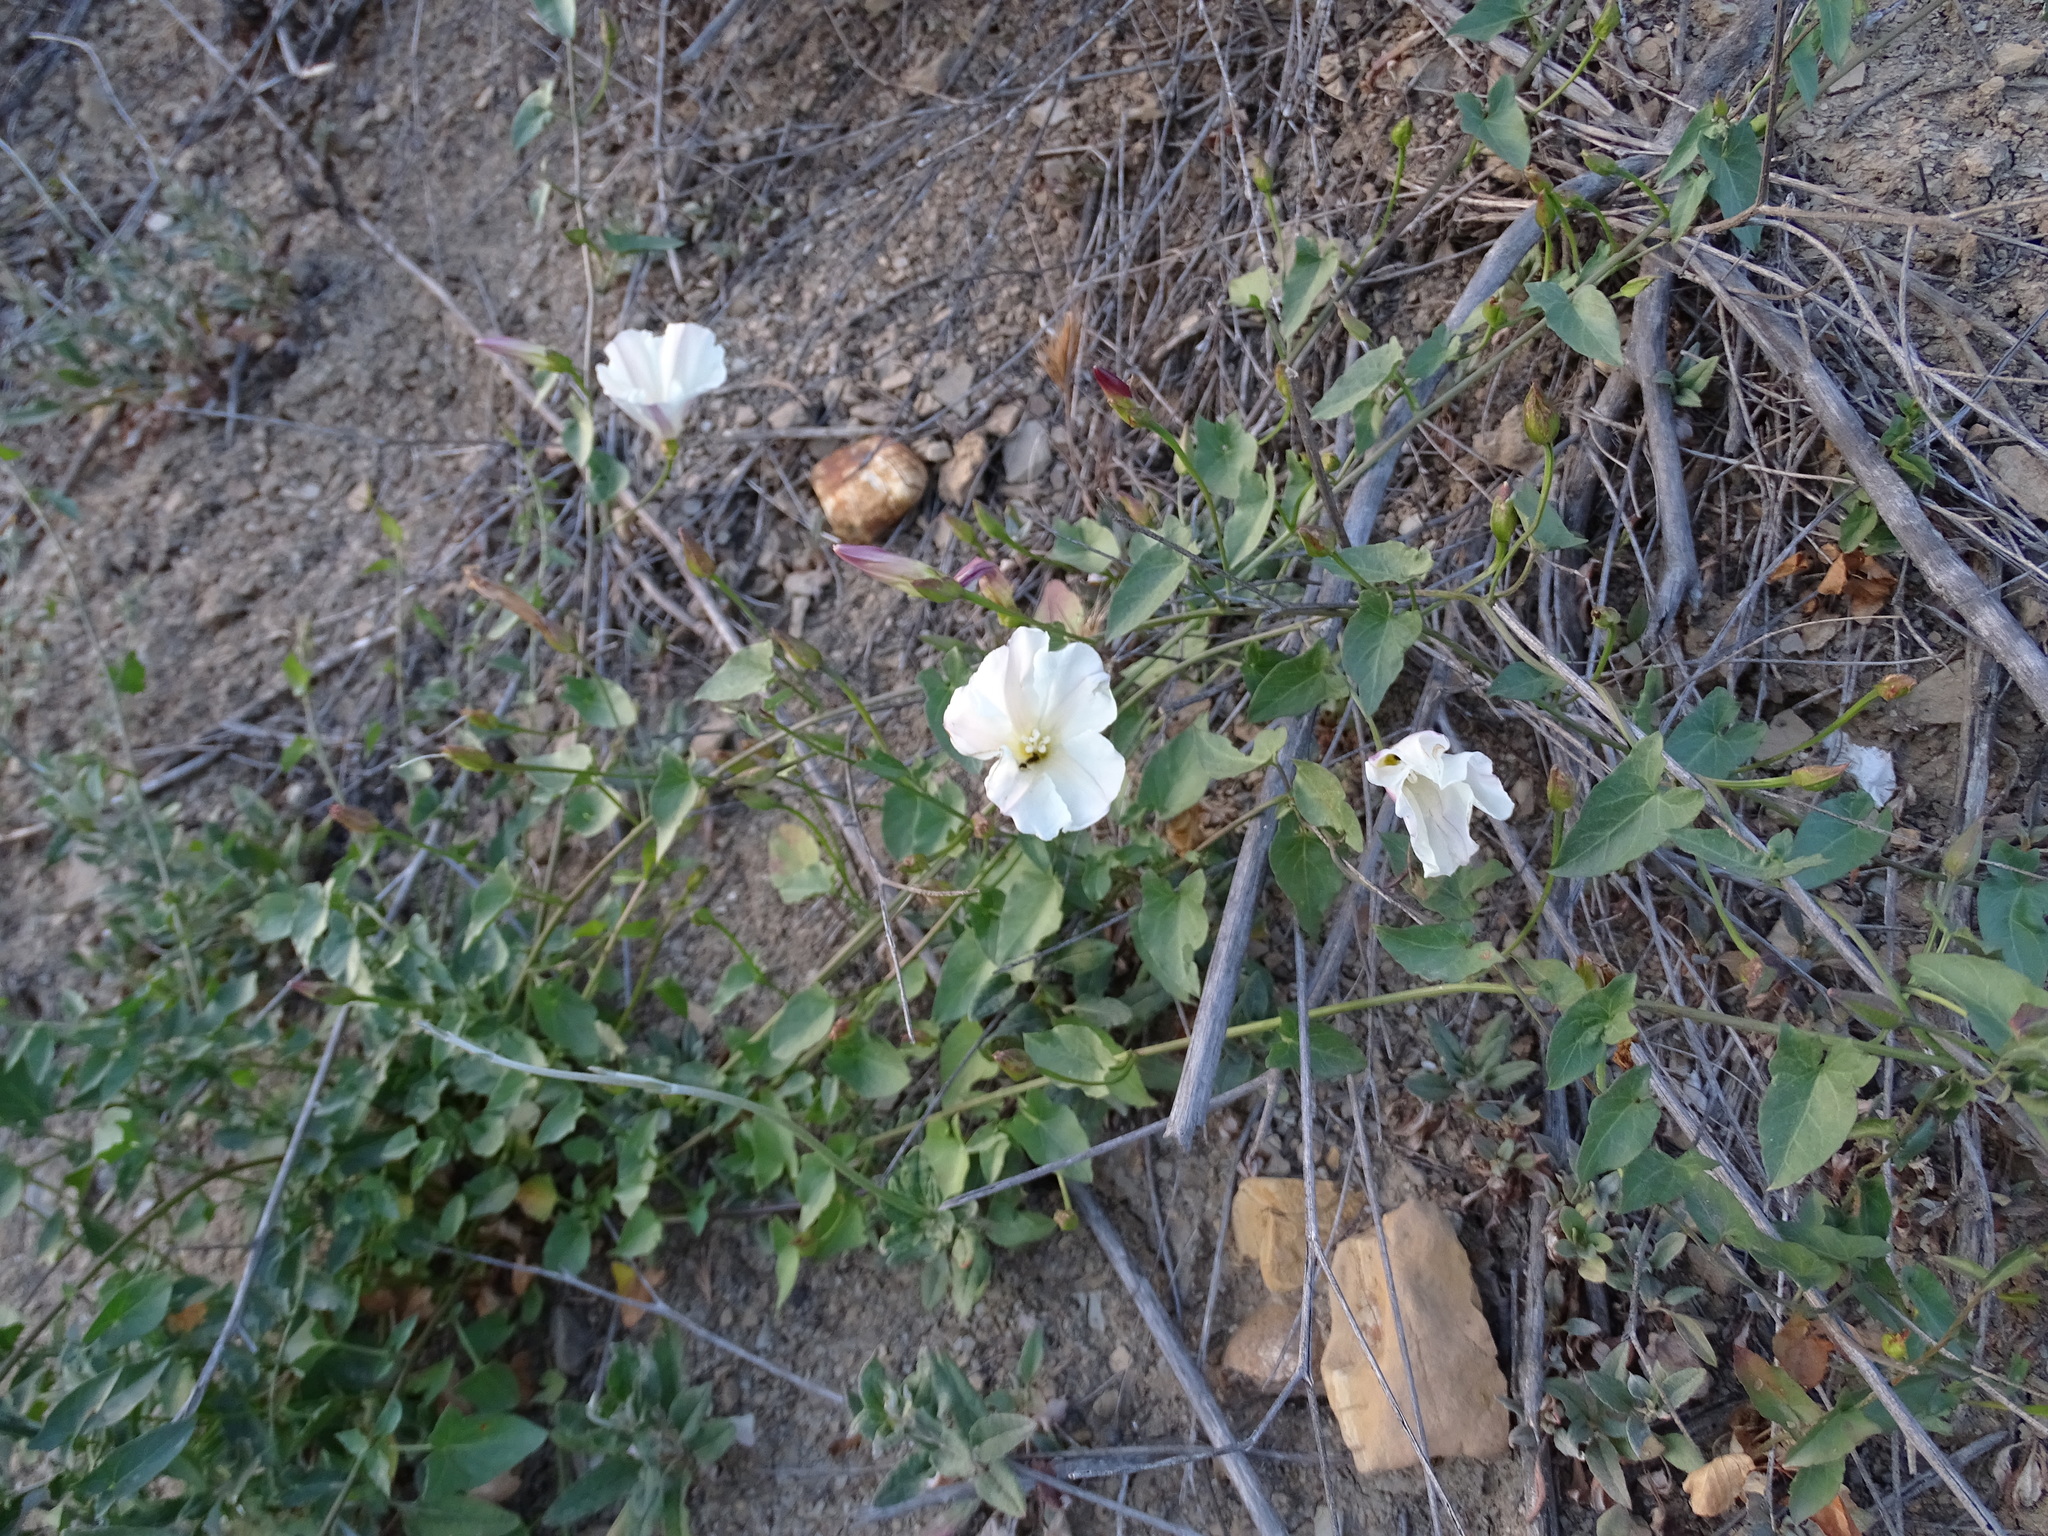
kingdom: Plantae
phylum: Tracheophyta
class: Magnoliopsida
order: Solanales
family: Convolvulaceae
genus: Calystegia
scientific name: Calystegia macrostegia
